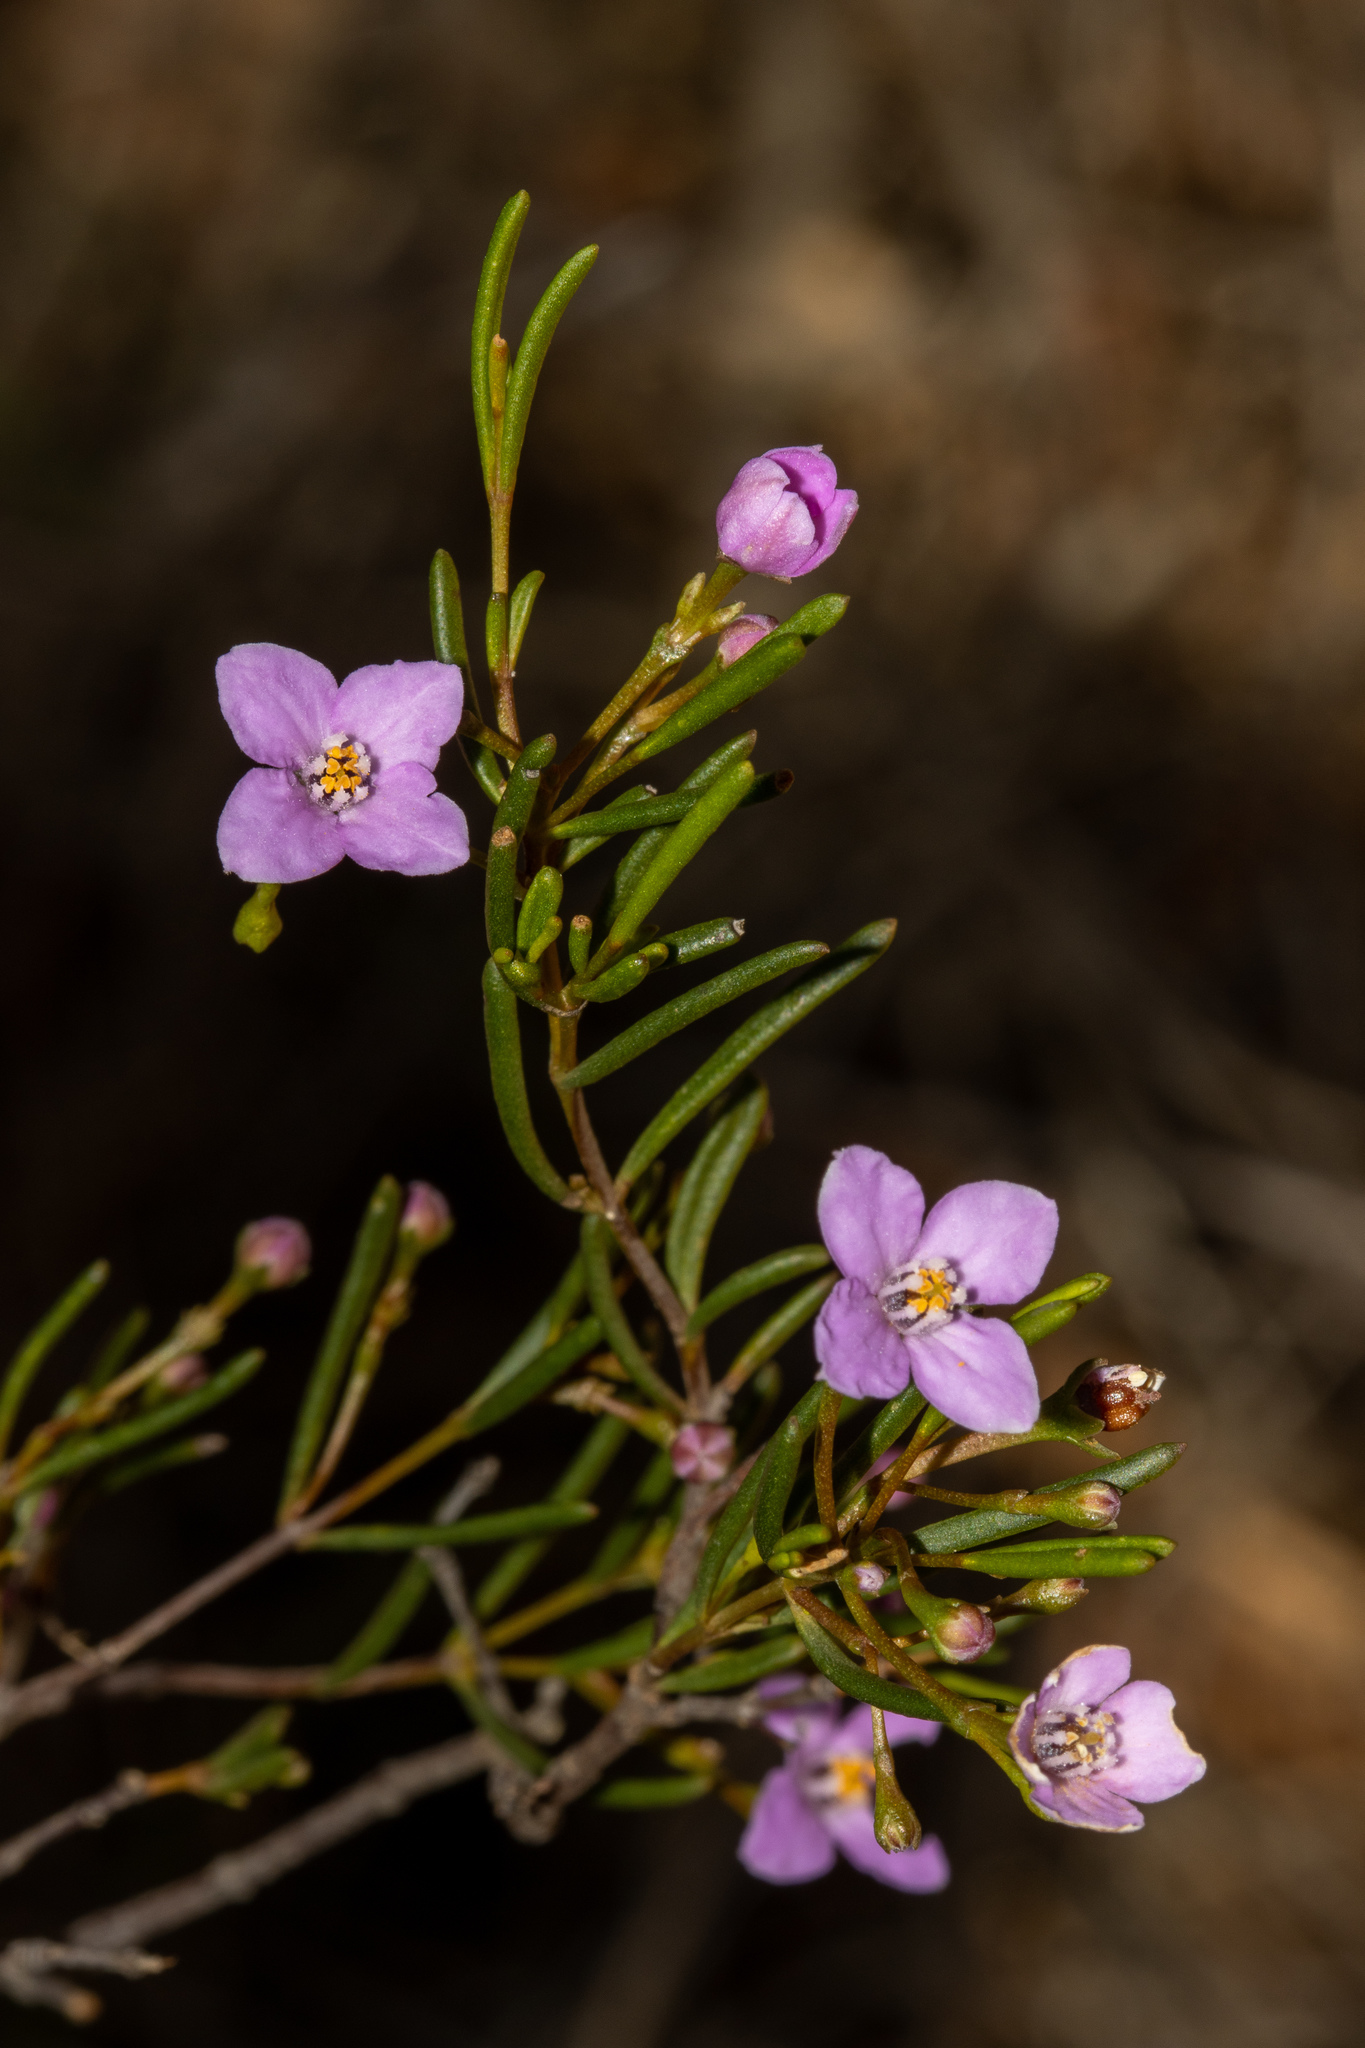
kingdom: Plantae
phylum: Tracheophyta
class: Magnoliopsida
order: Sapindales
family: Rutaceae
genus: Boronia
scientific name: Boronia filifolia
